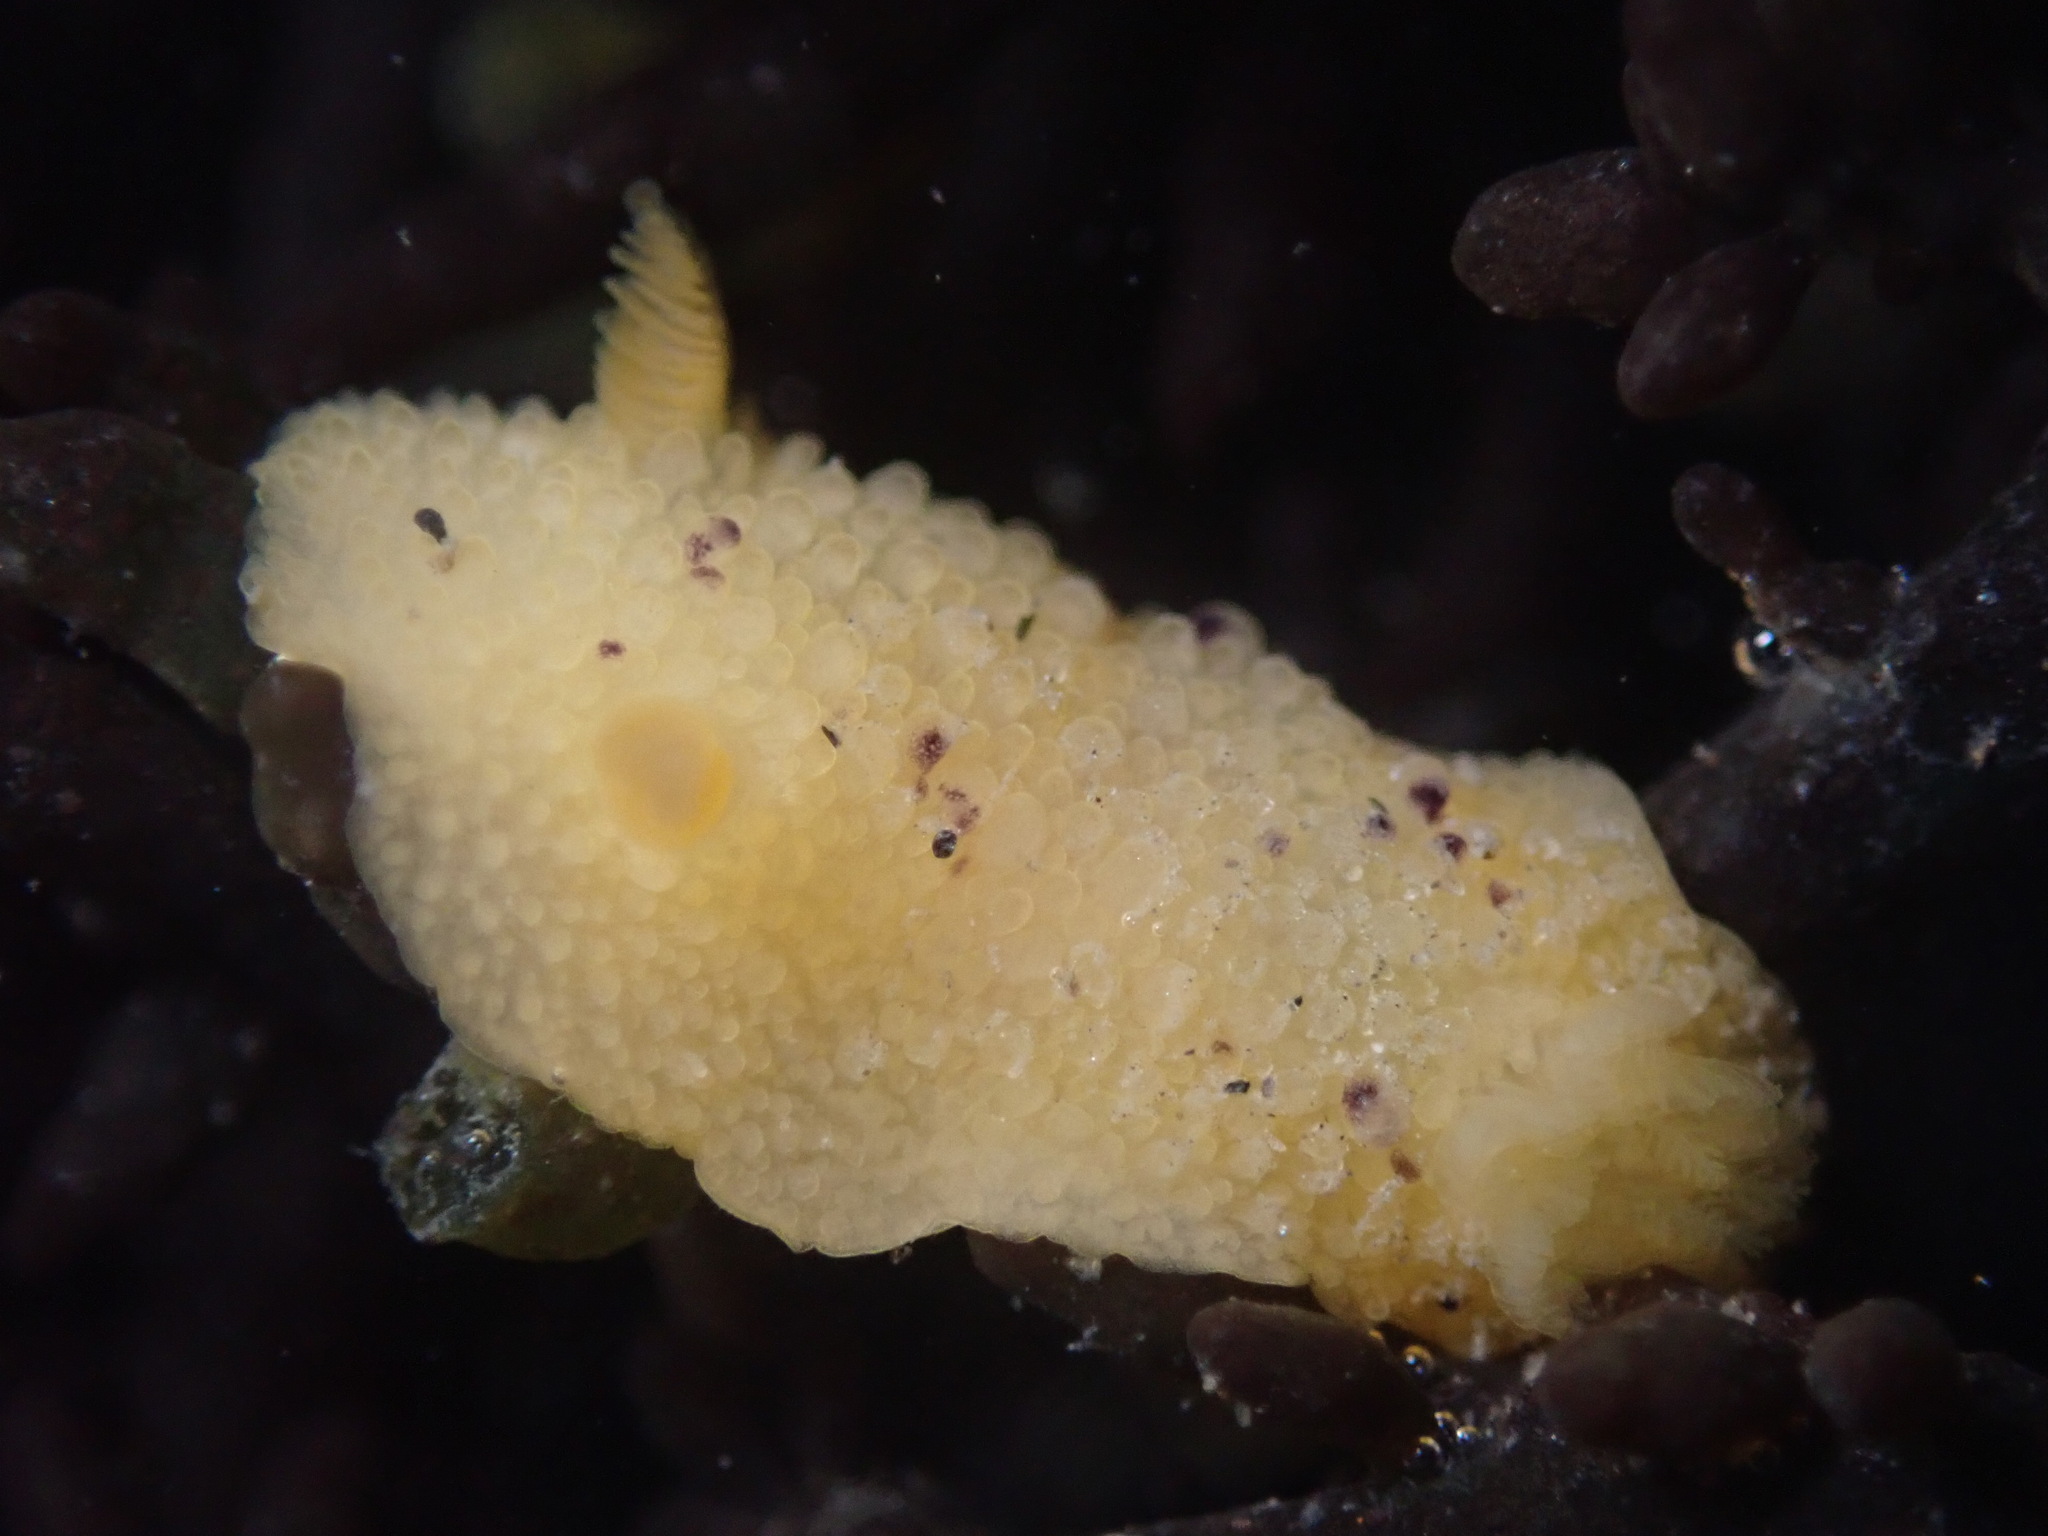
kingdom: Animalia
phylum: Mollusca
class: Gastropoda
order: Nudibranchia
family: Dorididae
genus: Doris
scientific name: Doris montereyensis
